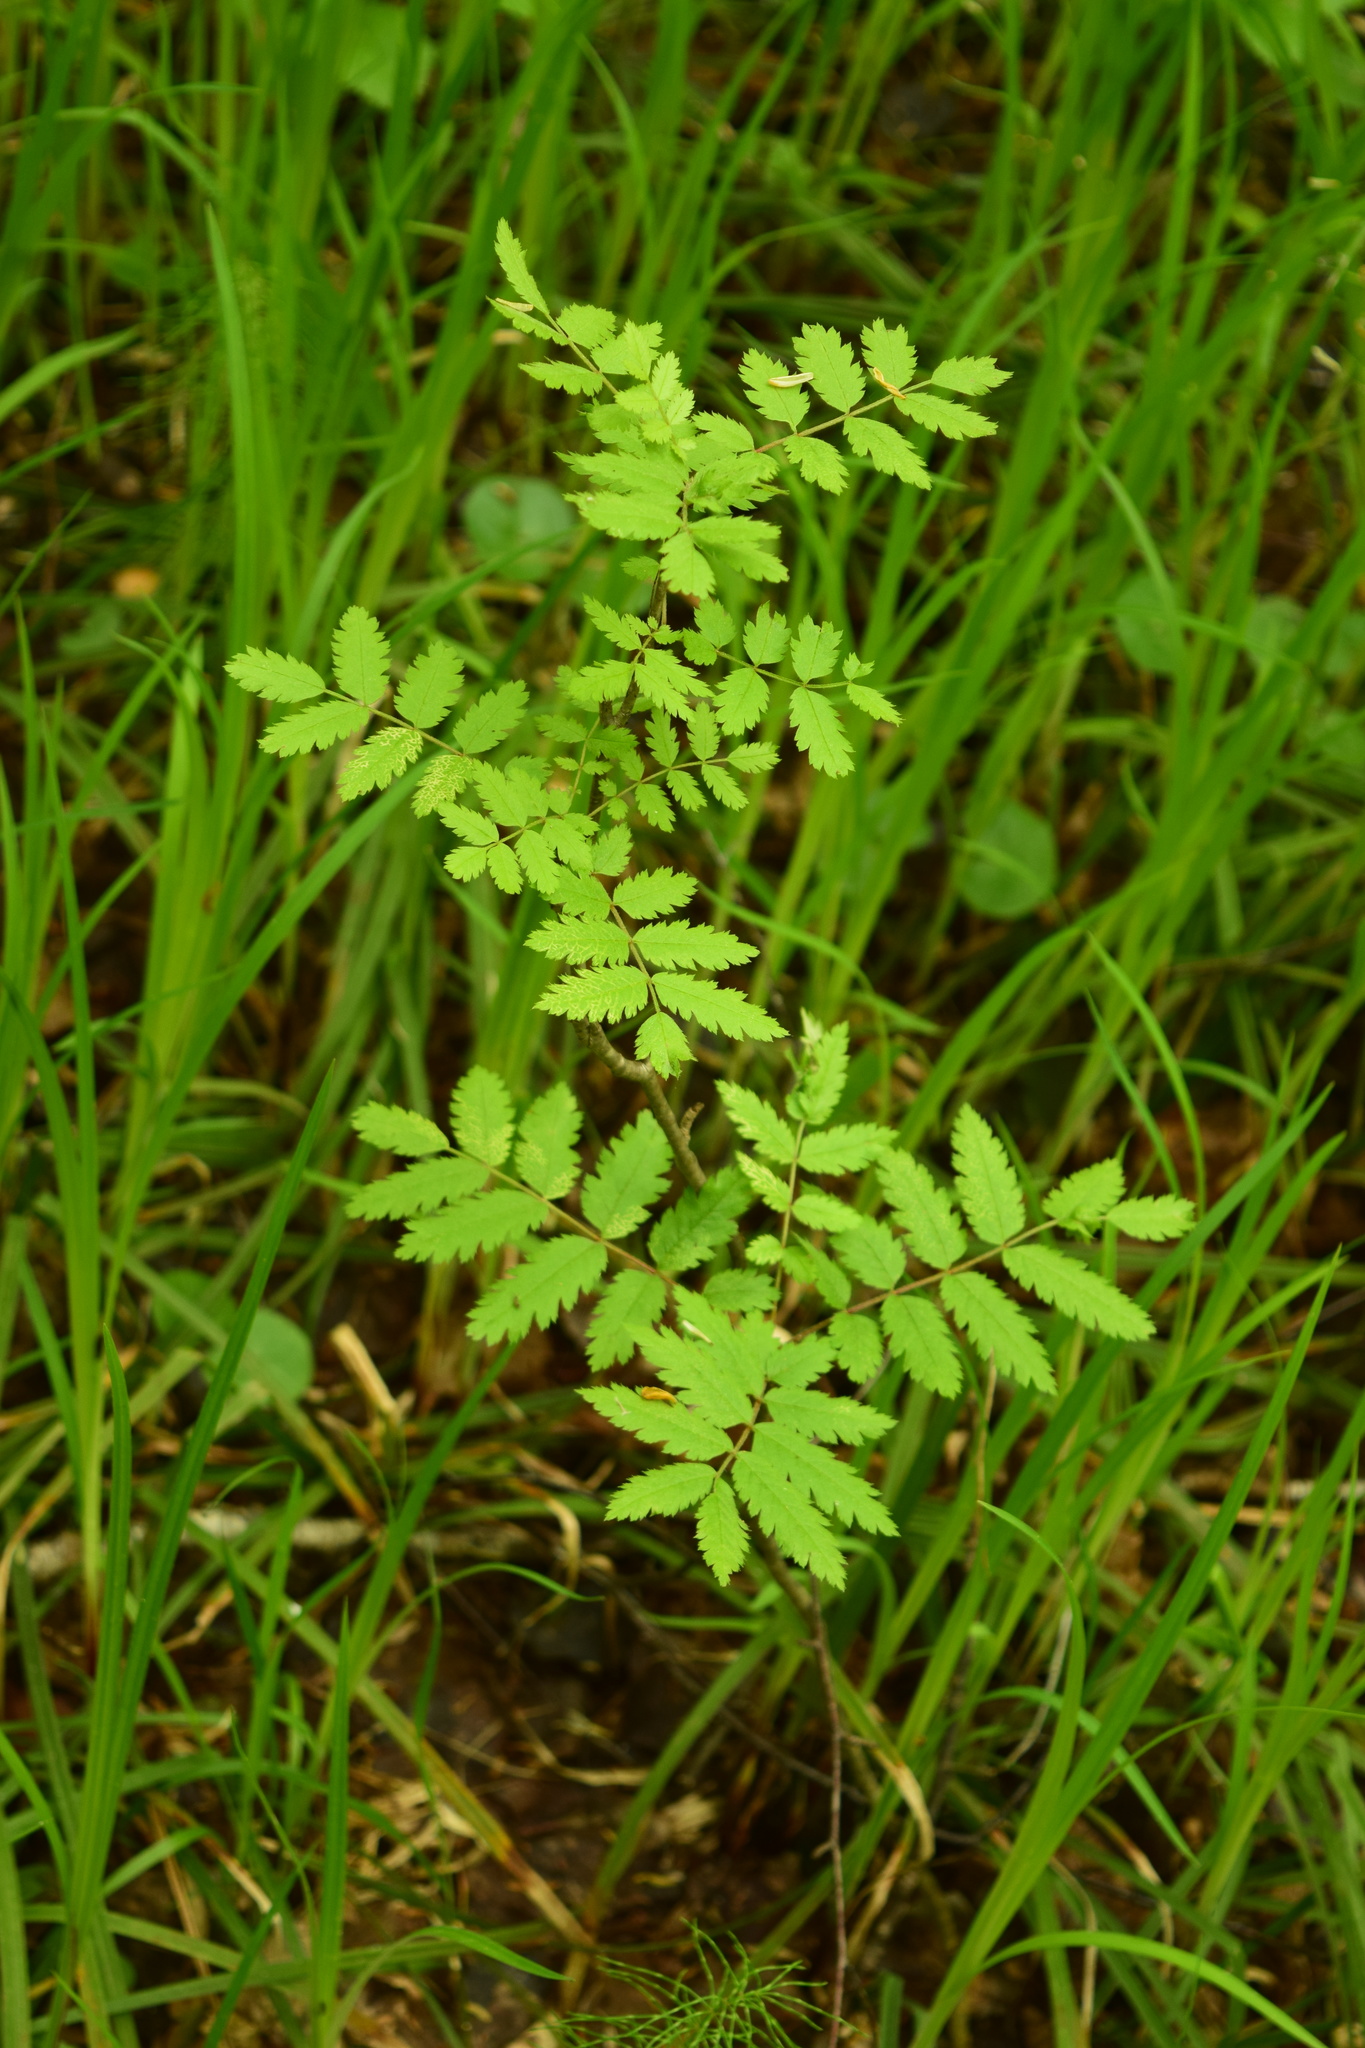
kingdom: Plantae
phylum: Tracheophyta
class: Magnoliopsida
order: Rosales
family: Rosaceae
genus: Sorbus
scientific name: Sorbus aucuparia
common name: Rowan
